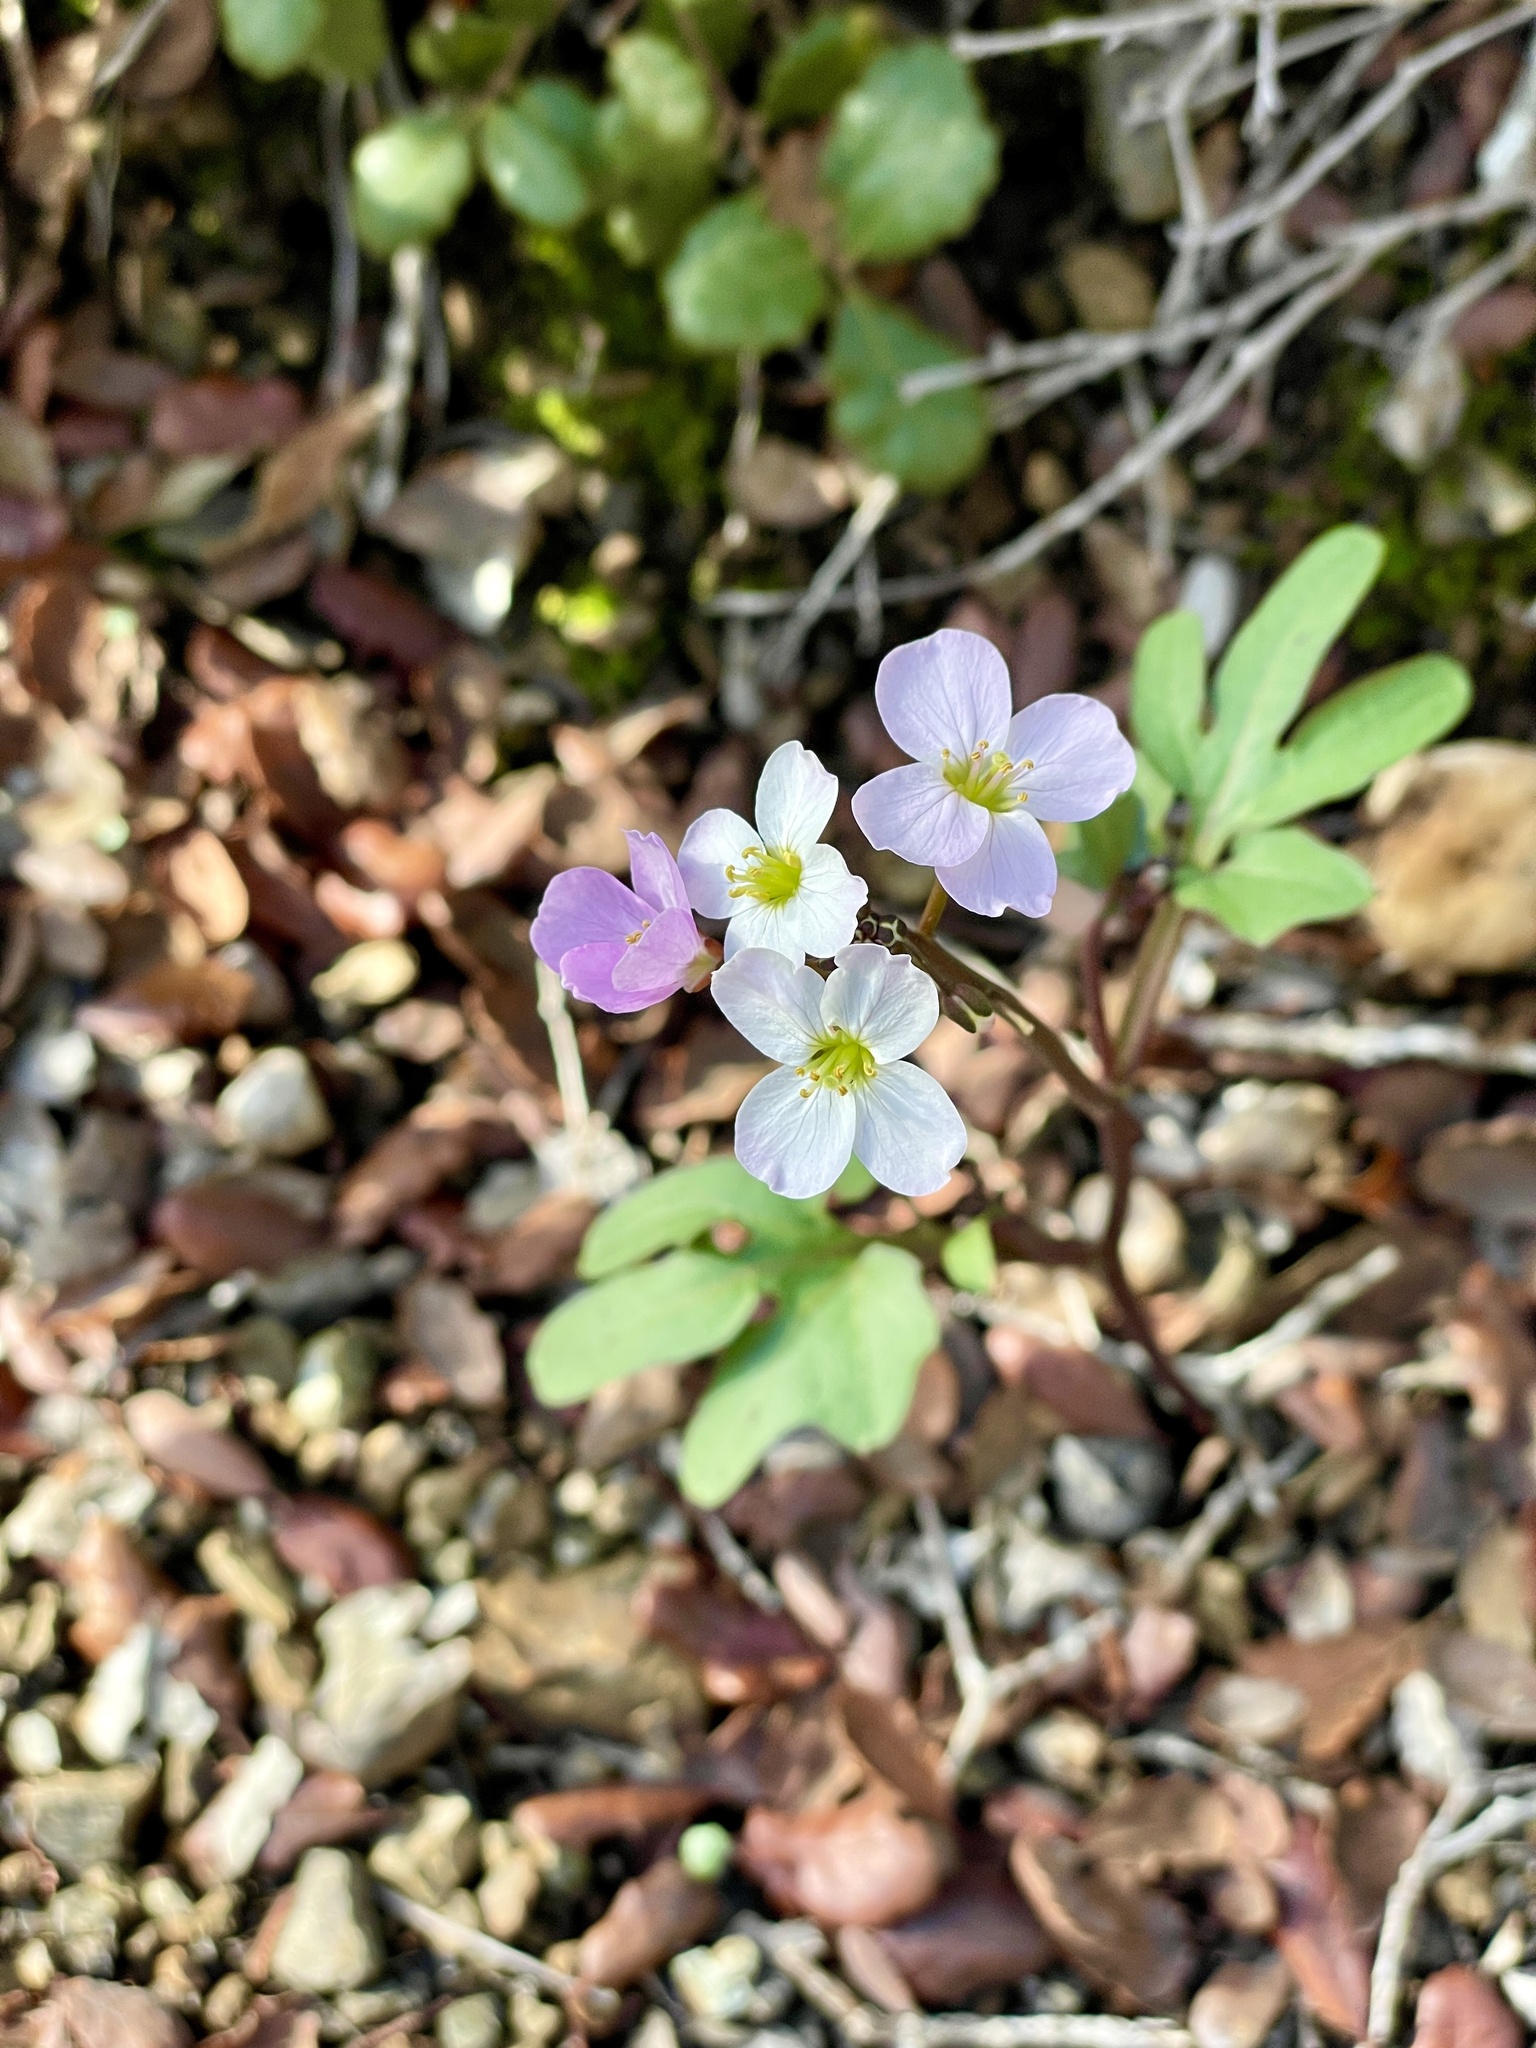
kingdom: Plantae
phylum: Tracheophyta
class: Magnoliopsida
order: Brassicales
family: Brassicaceae
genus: Cardamine
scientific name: Cardamine californica
